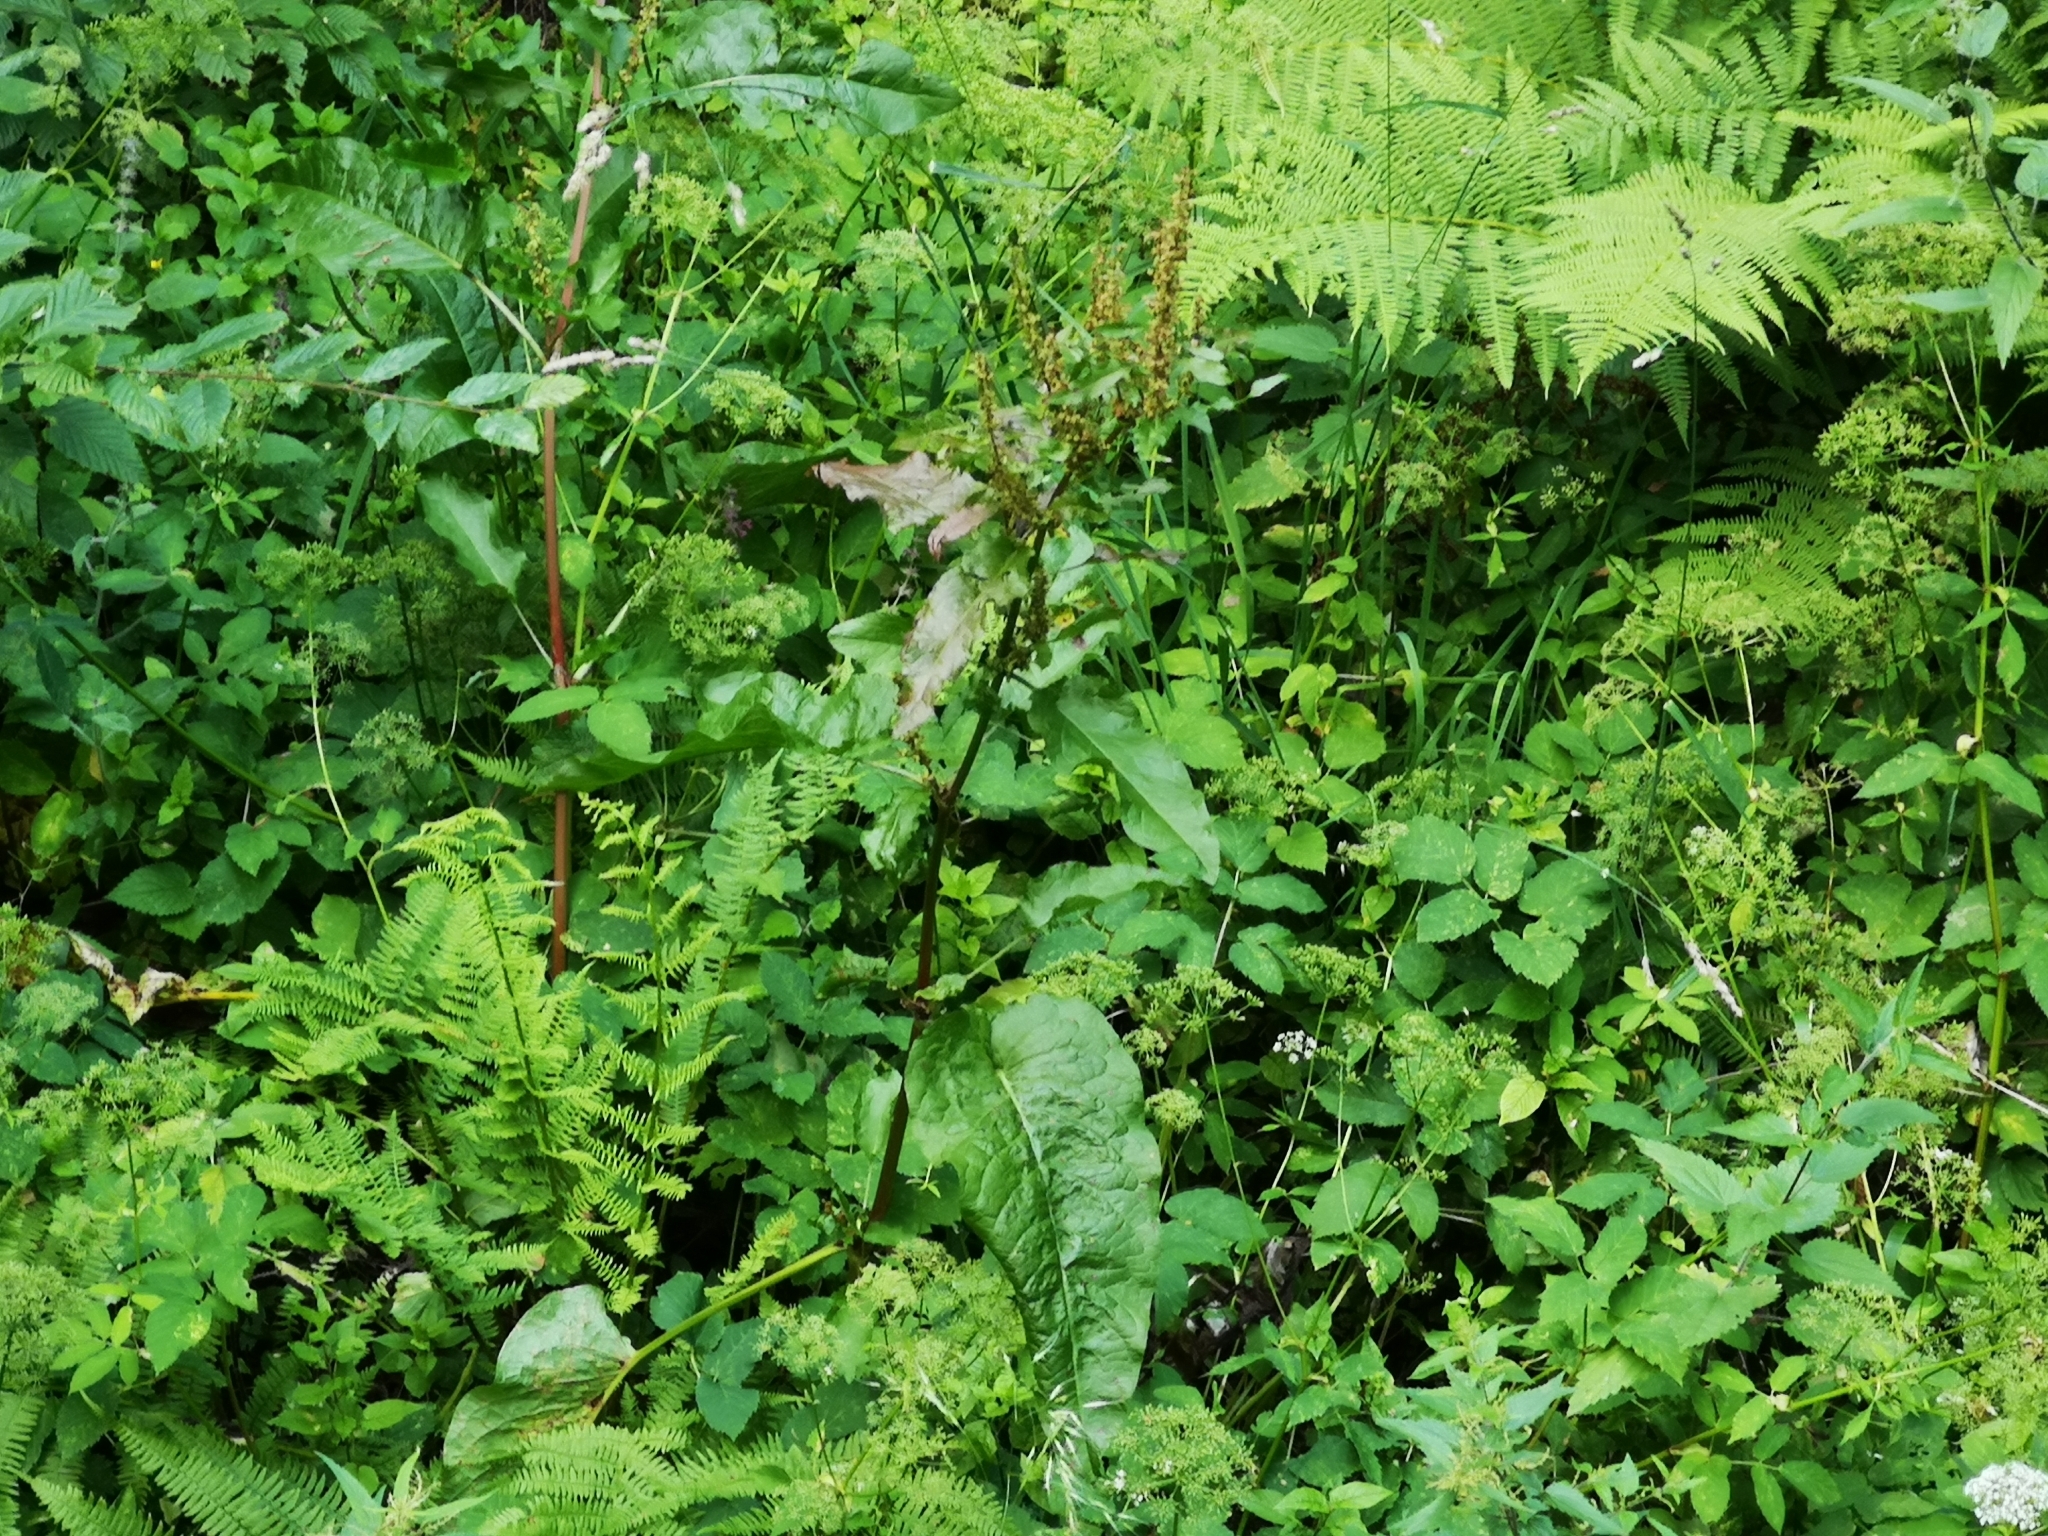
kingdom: Plantae
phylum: Tracheophyta
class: Magnoliopsida
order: Caryophyllales
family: Polygonaceae
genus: Rumex
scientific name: Rumex obtusifolius
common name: Bitter dock
